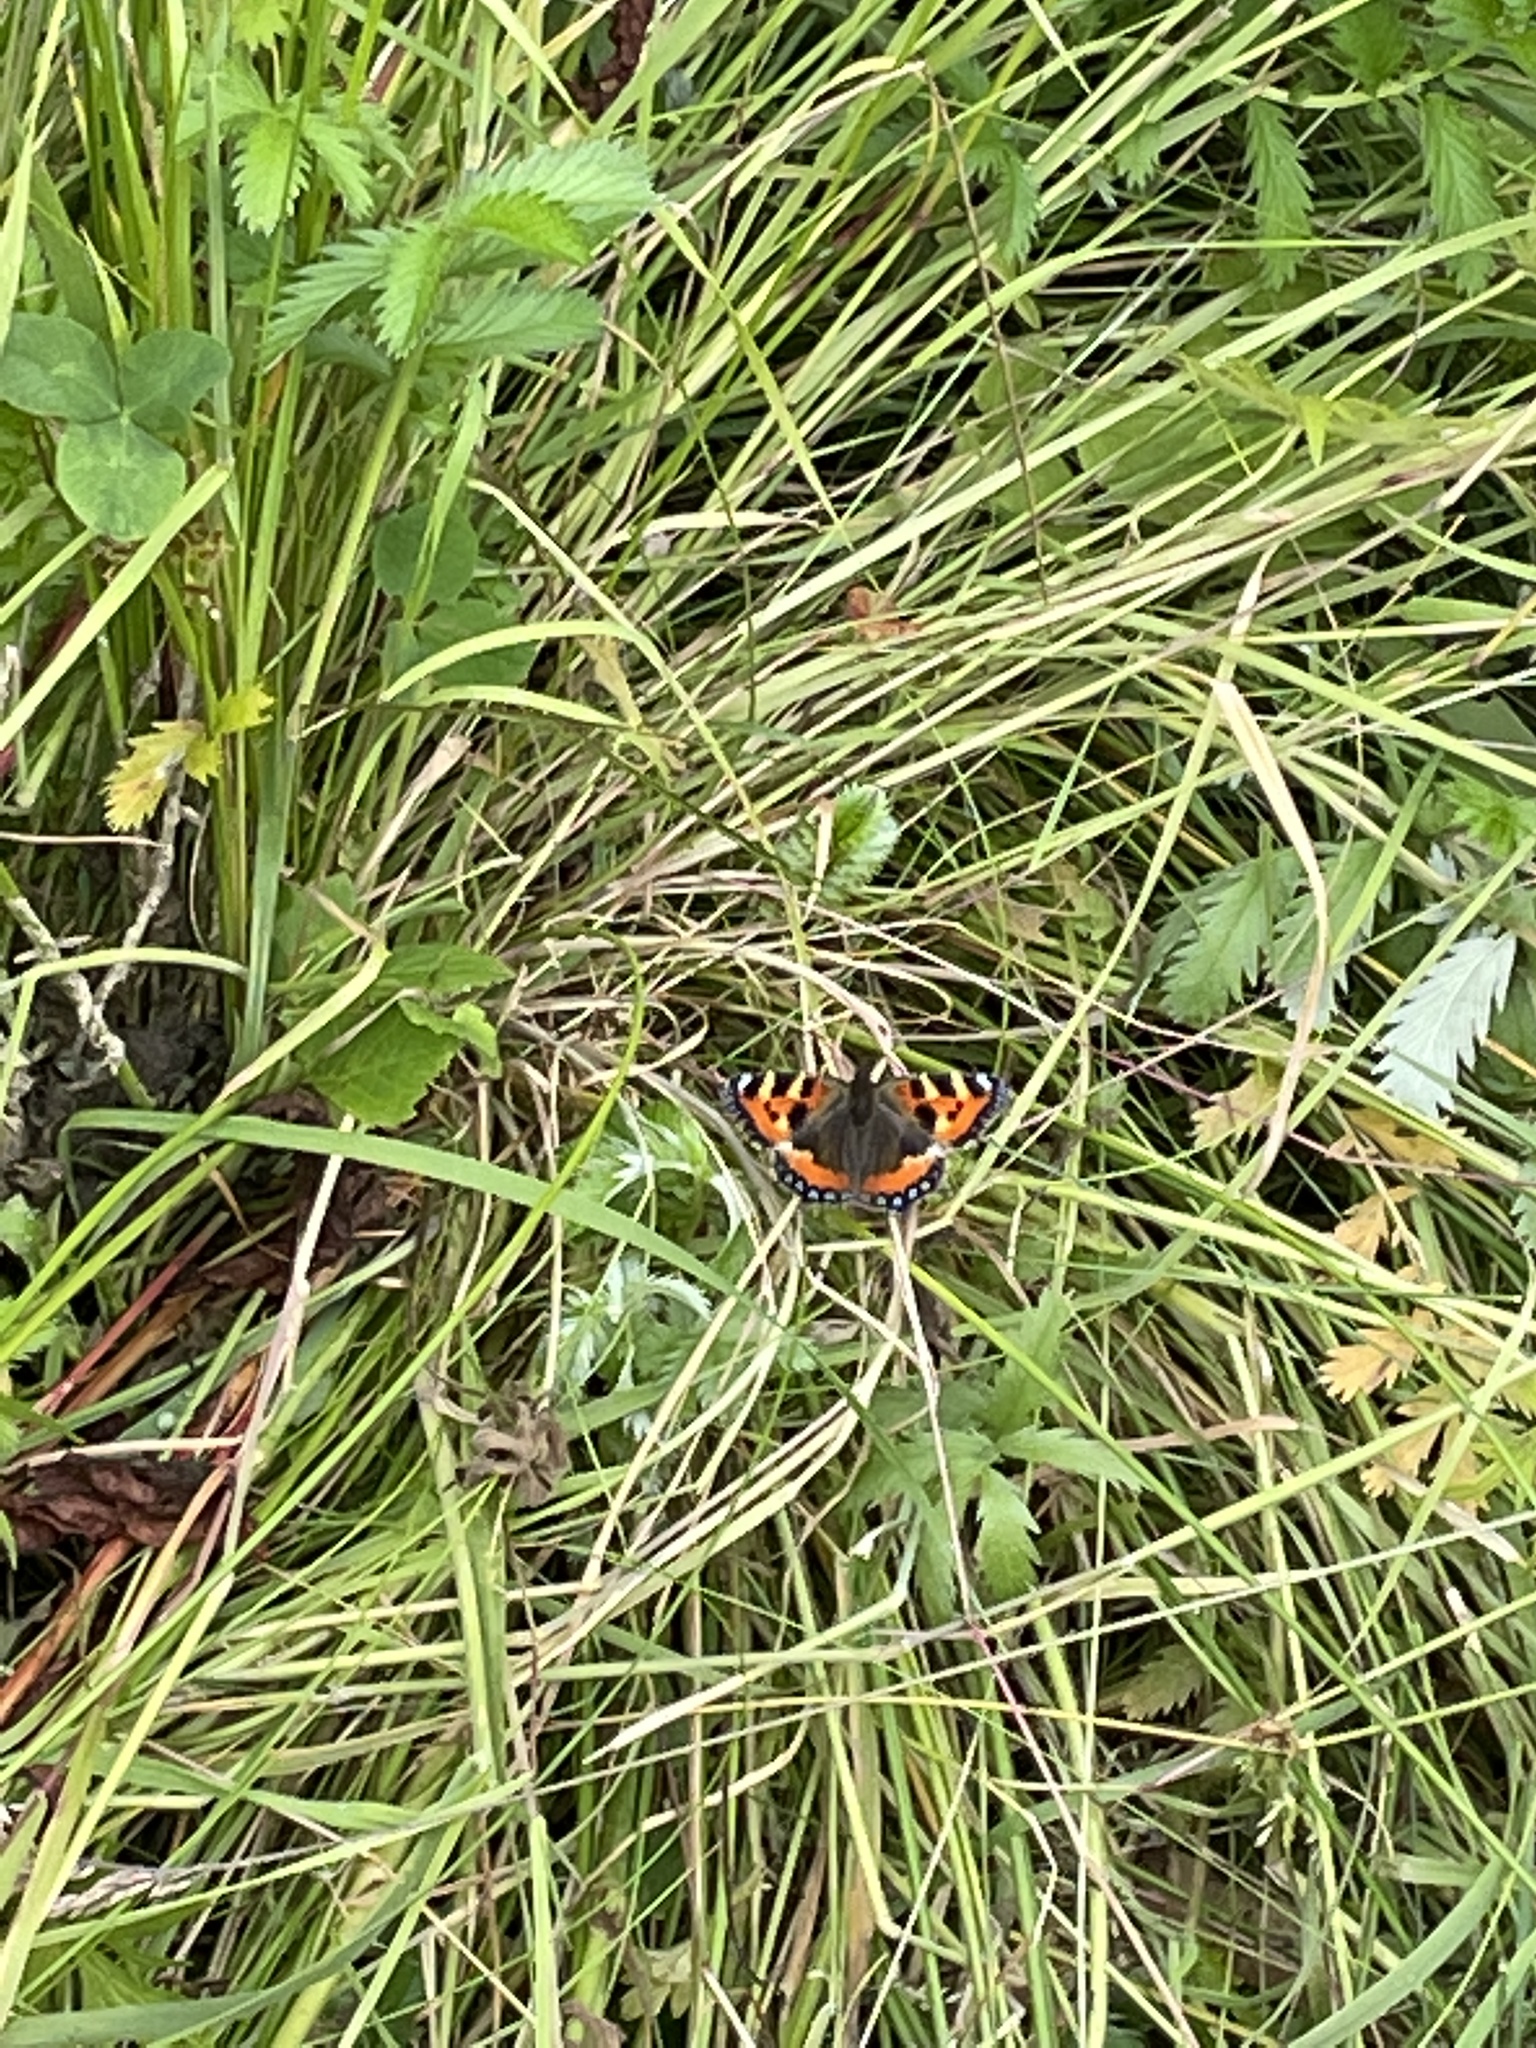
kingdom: Animalia
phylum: Arthropoda
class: Insecta
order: Lepidoptera
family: Nymphalidae
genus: Aglais
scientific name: Aglais urticae
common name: Small tortoiseshell
